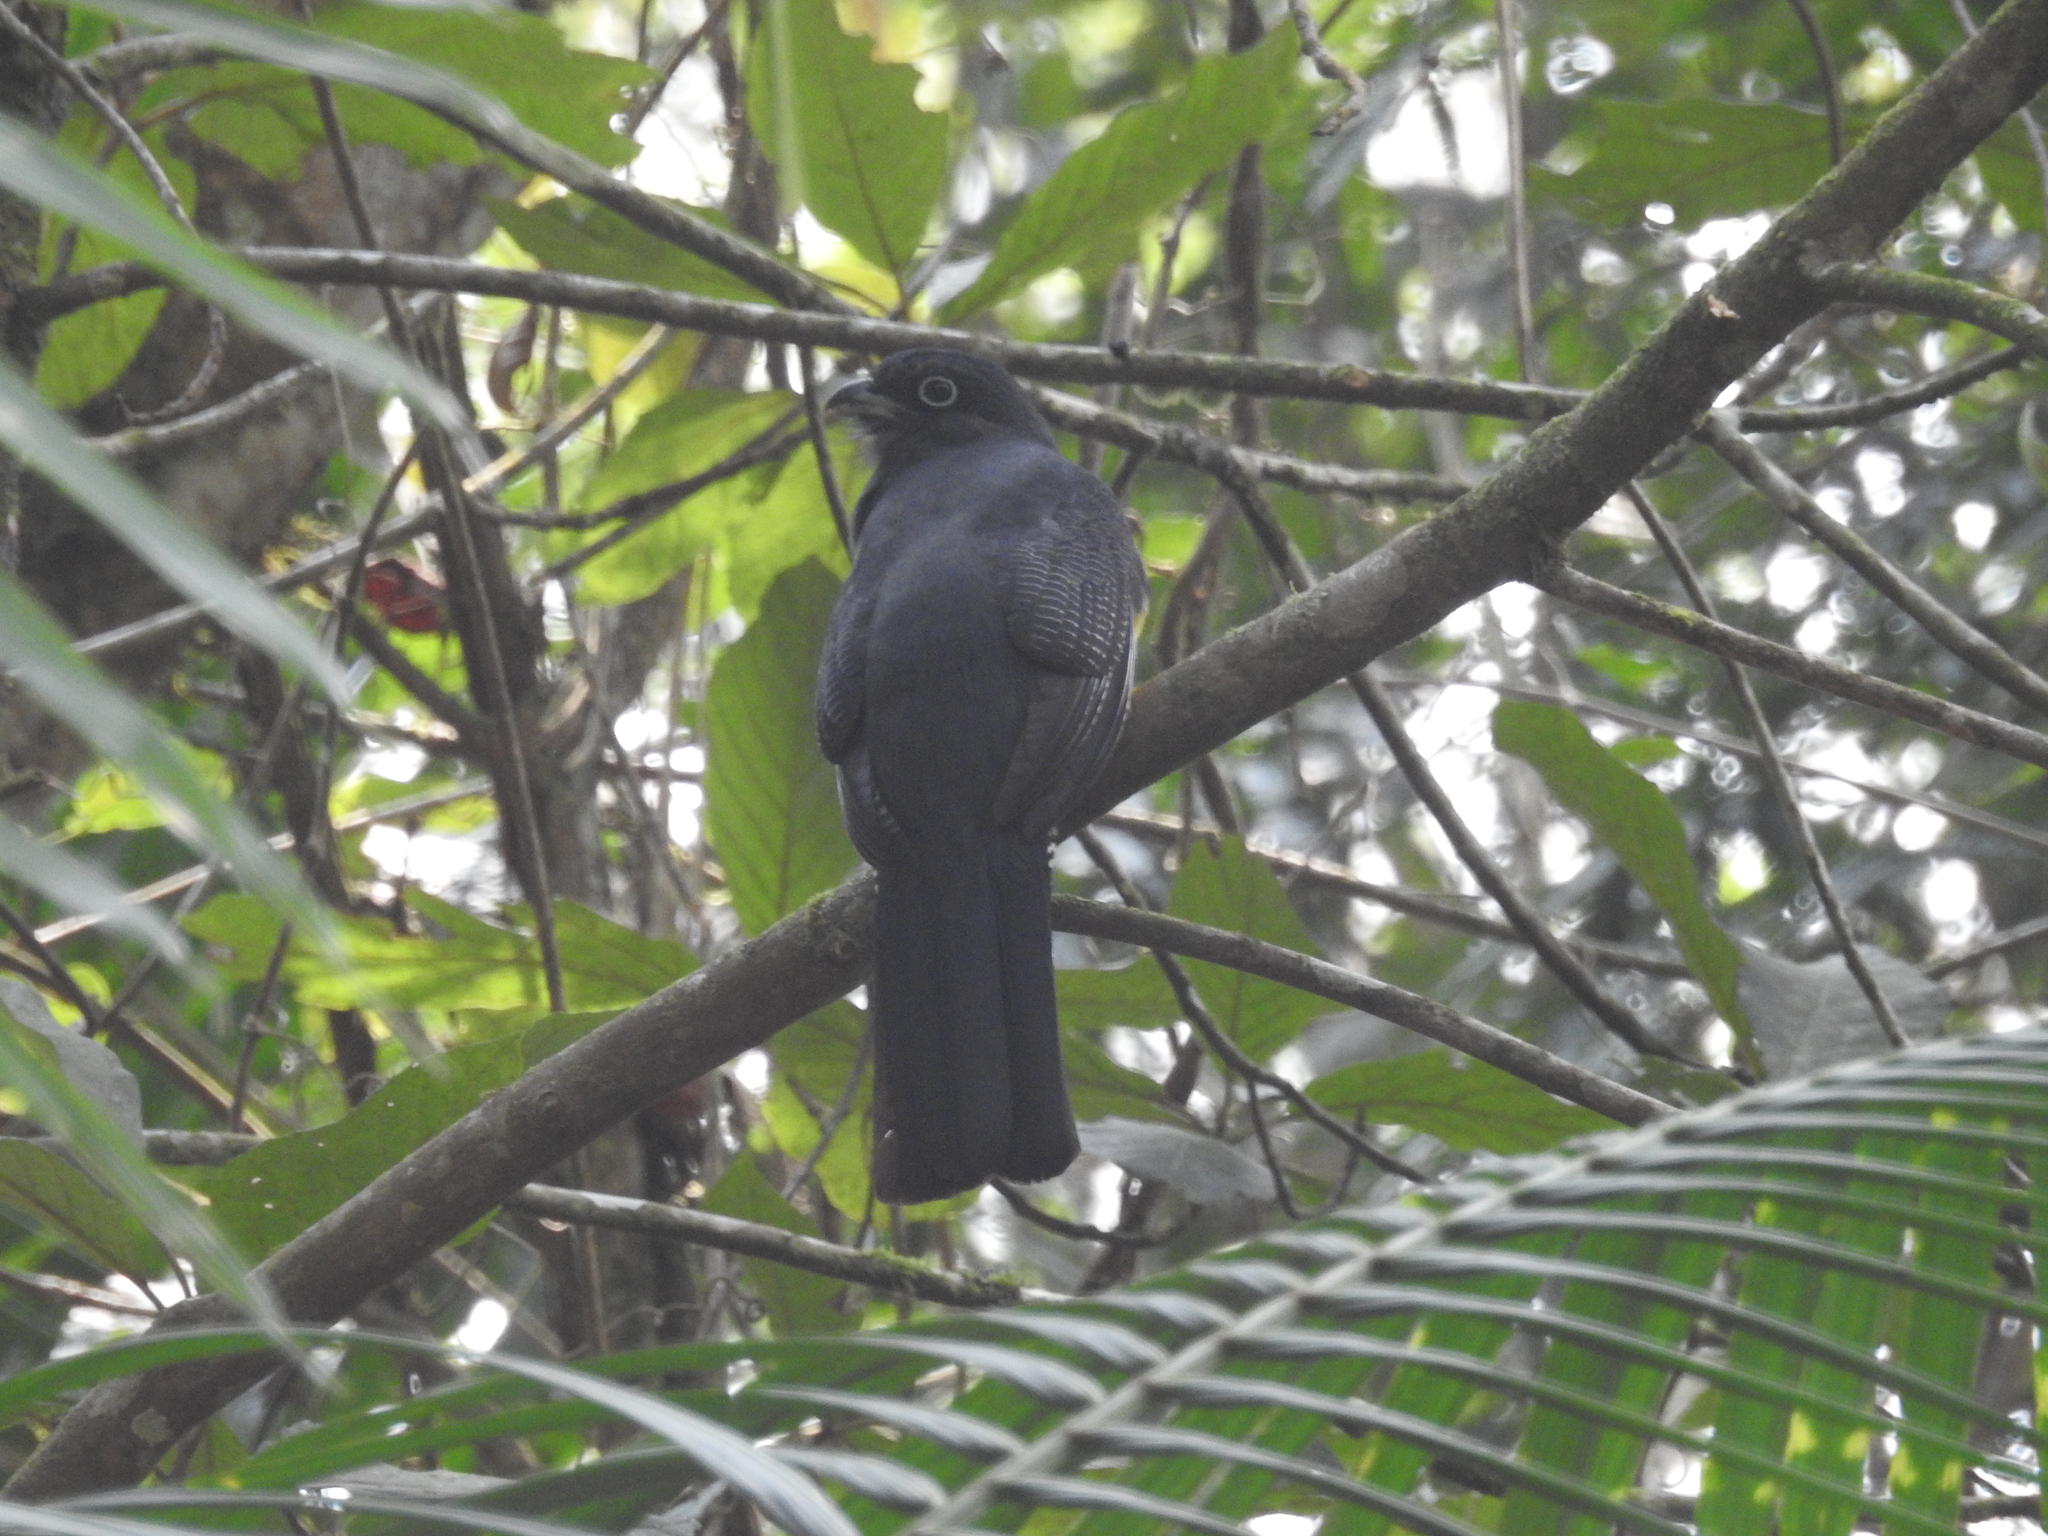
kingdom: Animalia
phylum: Chordata
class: Aves
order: Trogoniformes
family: Trogonidae
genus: Trogon
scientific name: Trogon viridis
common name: Green-backed trogon
